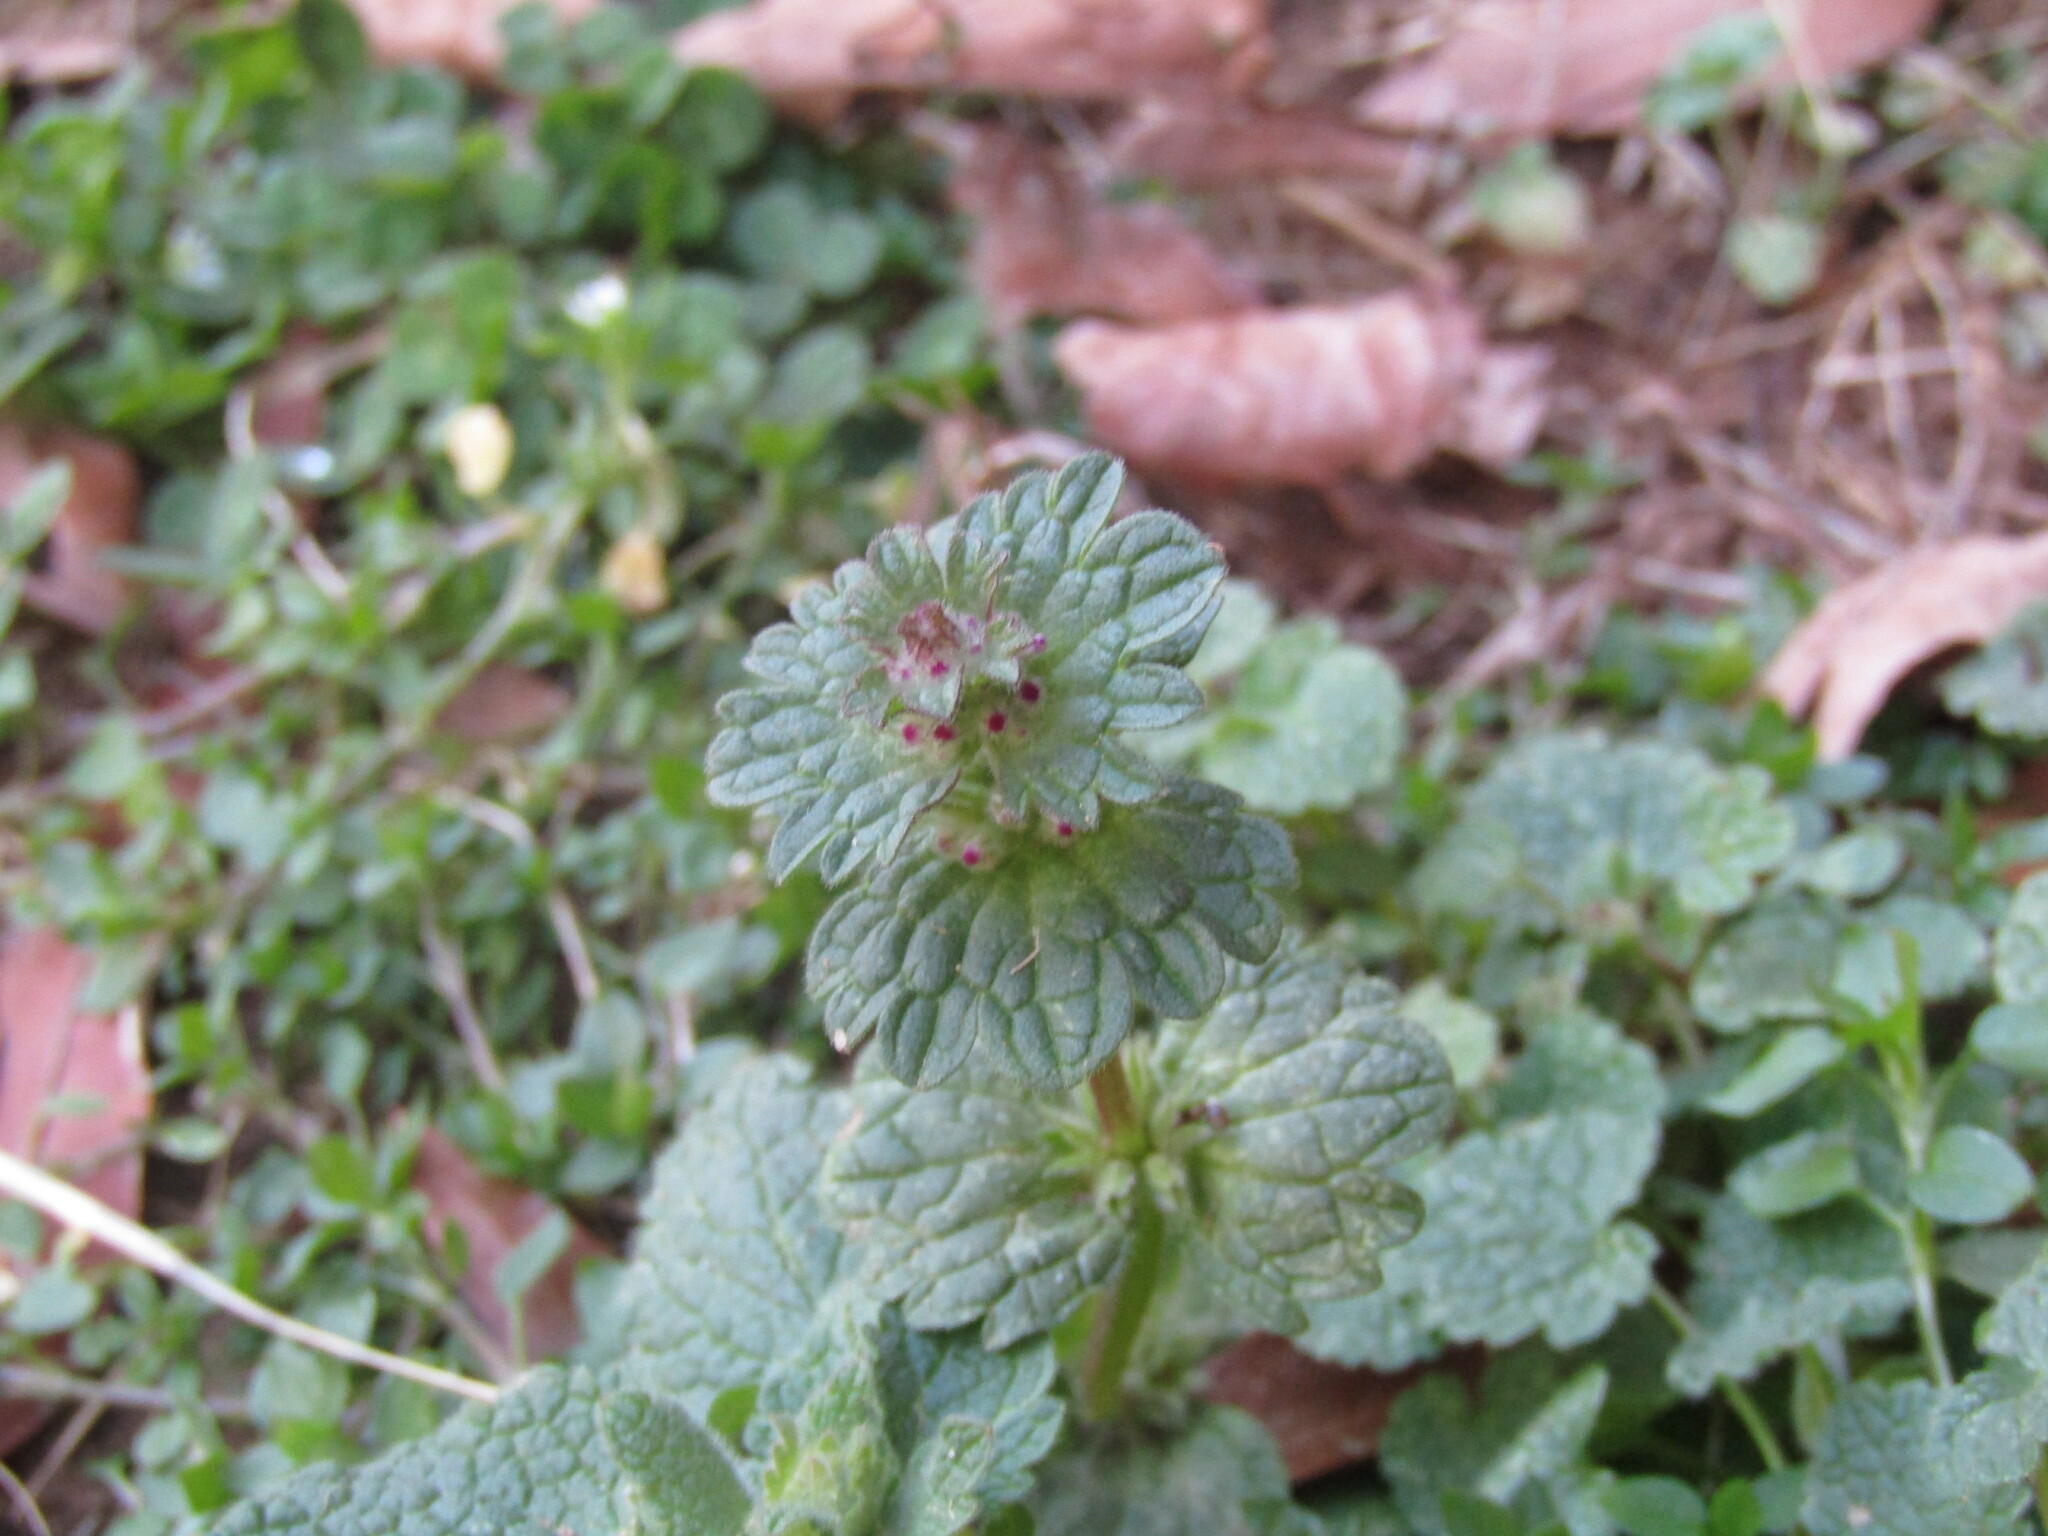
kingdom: Plantae
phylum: Tracheophyta
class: Magnoliopsida
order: Lamiales
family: Lamiaceae
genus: Lamium
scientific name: Lamium amplexicaule
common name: Henbit dead-nettle
